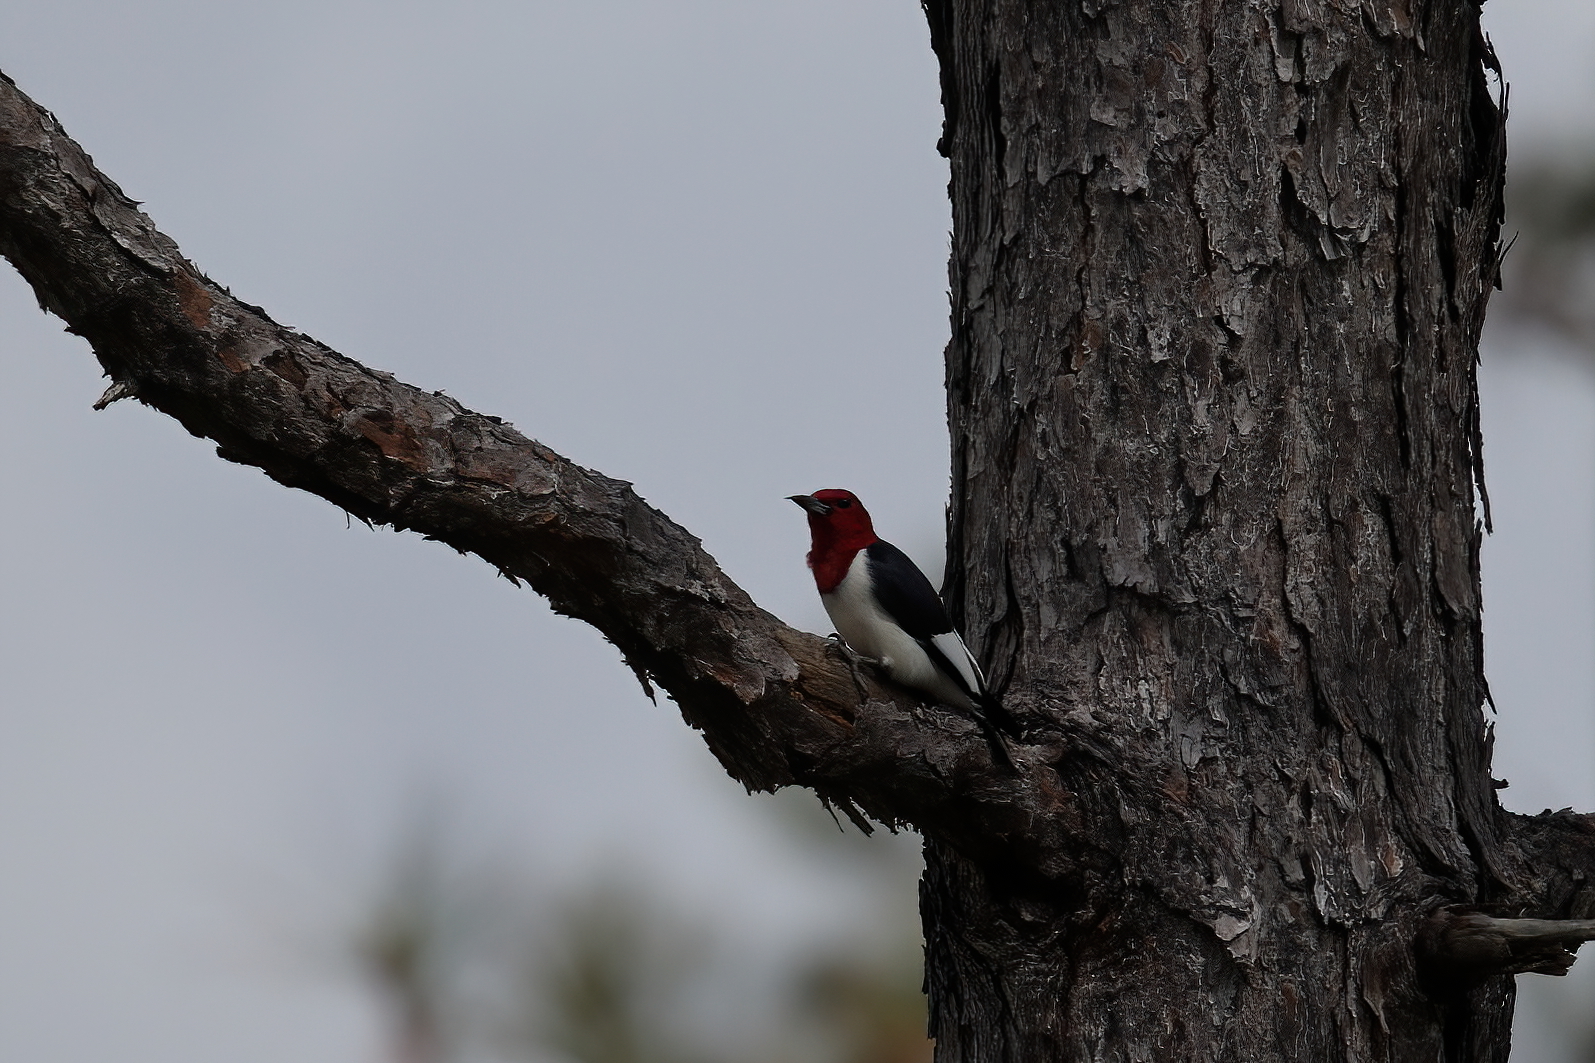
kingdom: Animalia
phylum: Chordata
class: Aves
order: Piciformes
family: Picidae
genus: Melanerpes
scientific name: Melanerpes erythrocephalus
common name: Red-headed woodpecker
